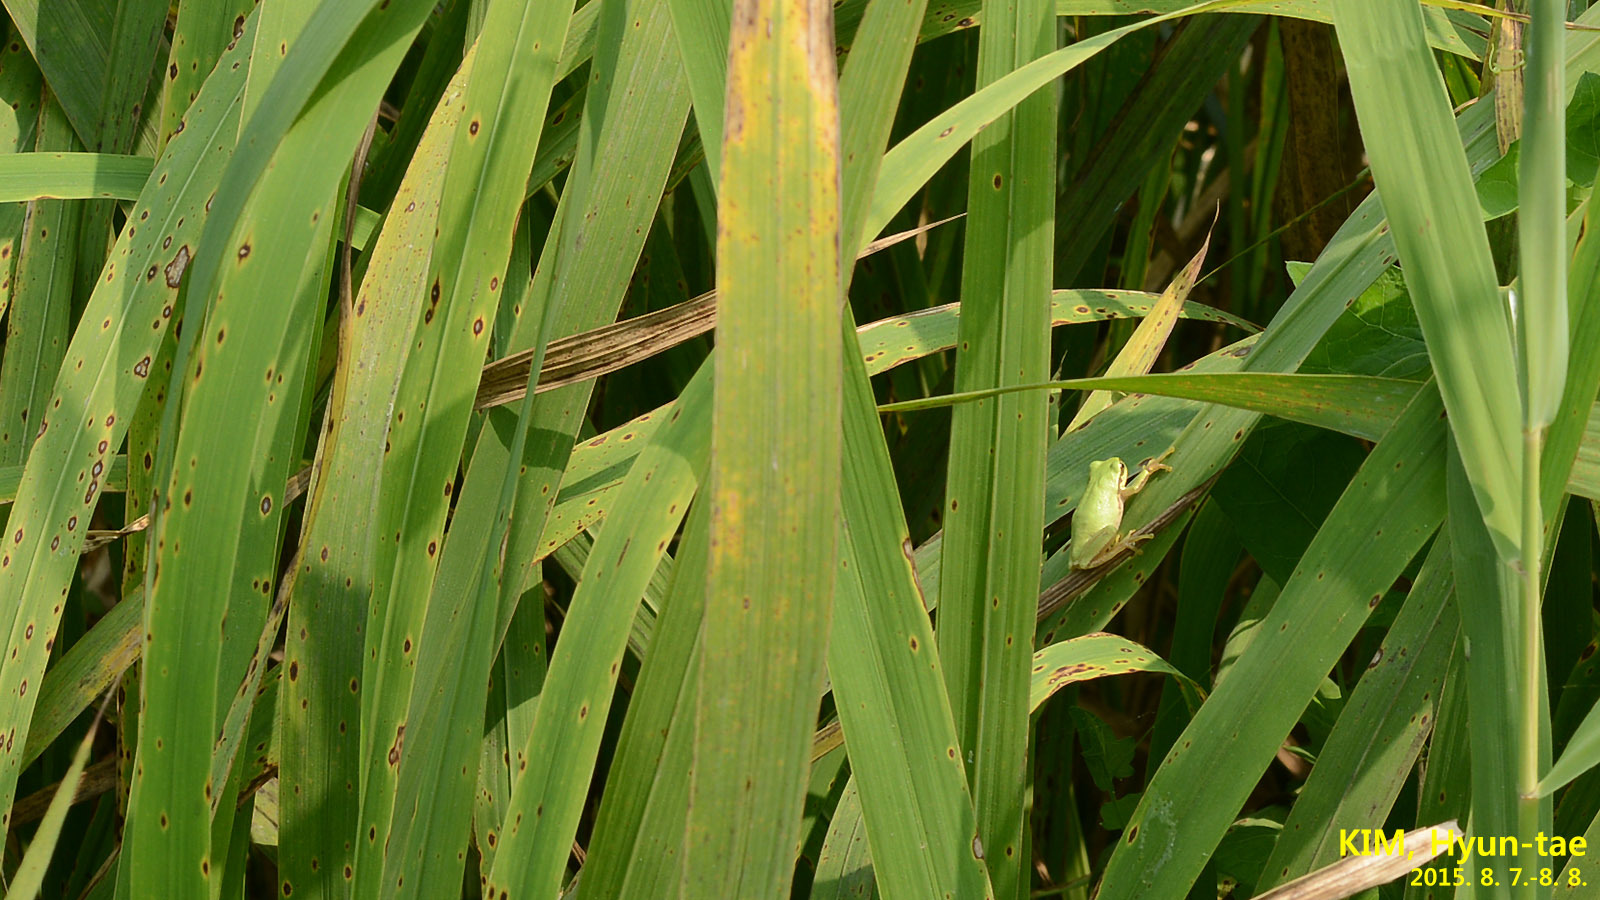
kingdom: Animalia
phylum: Chordata
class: Amphibia
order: Anura
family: Hylidae
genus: Hyla
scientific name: Hyla
